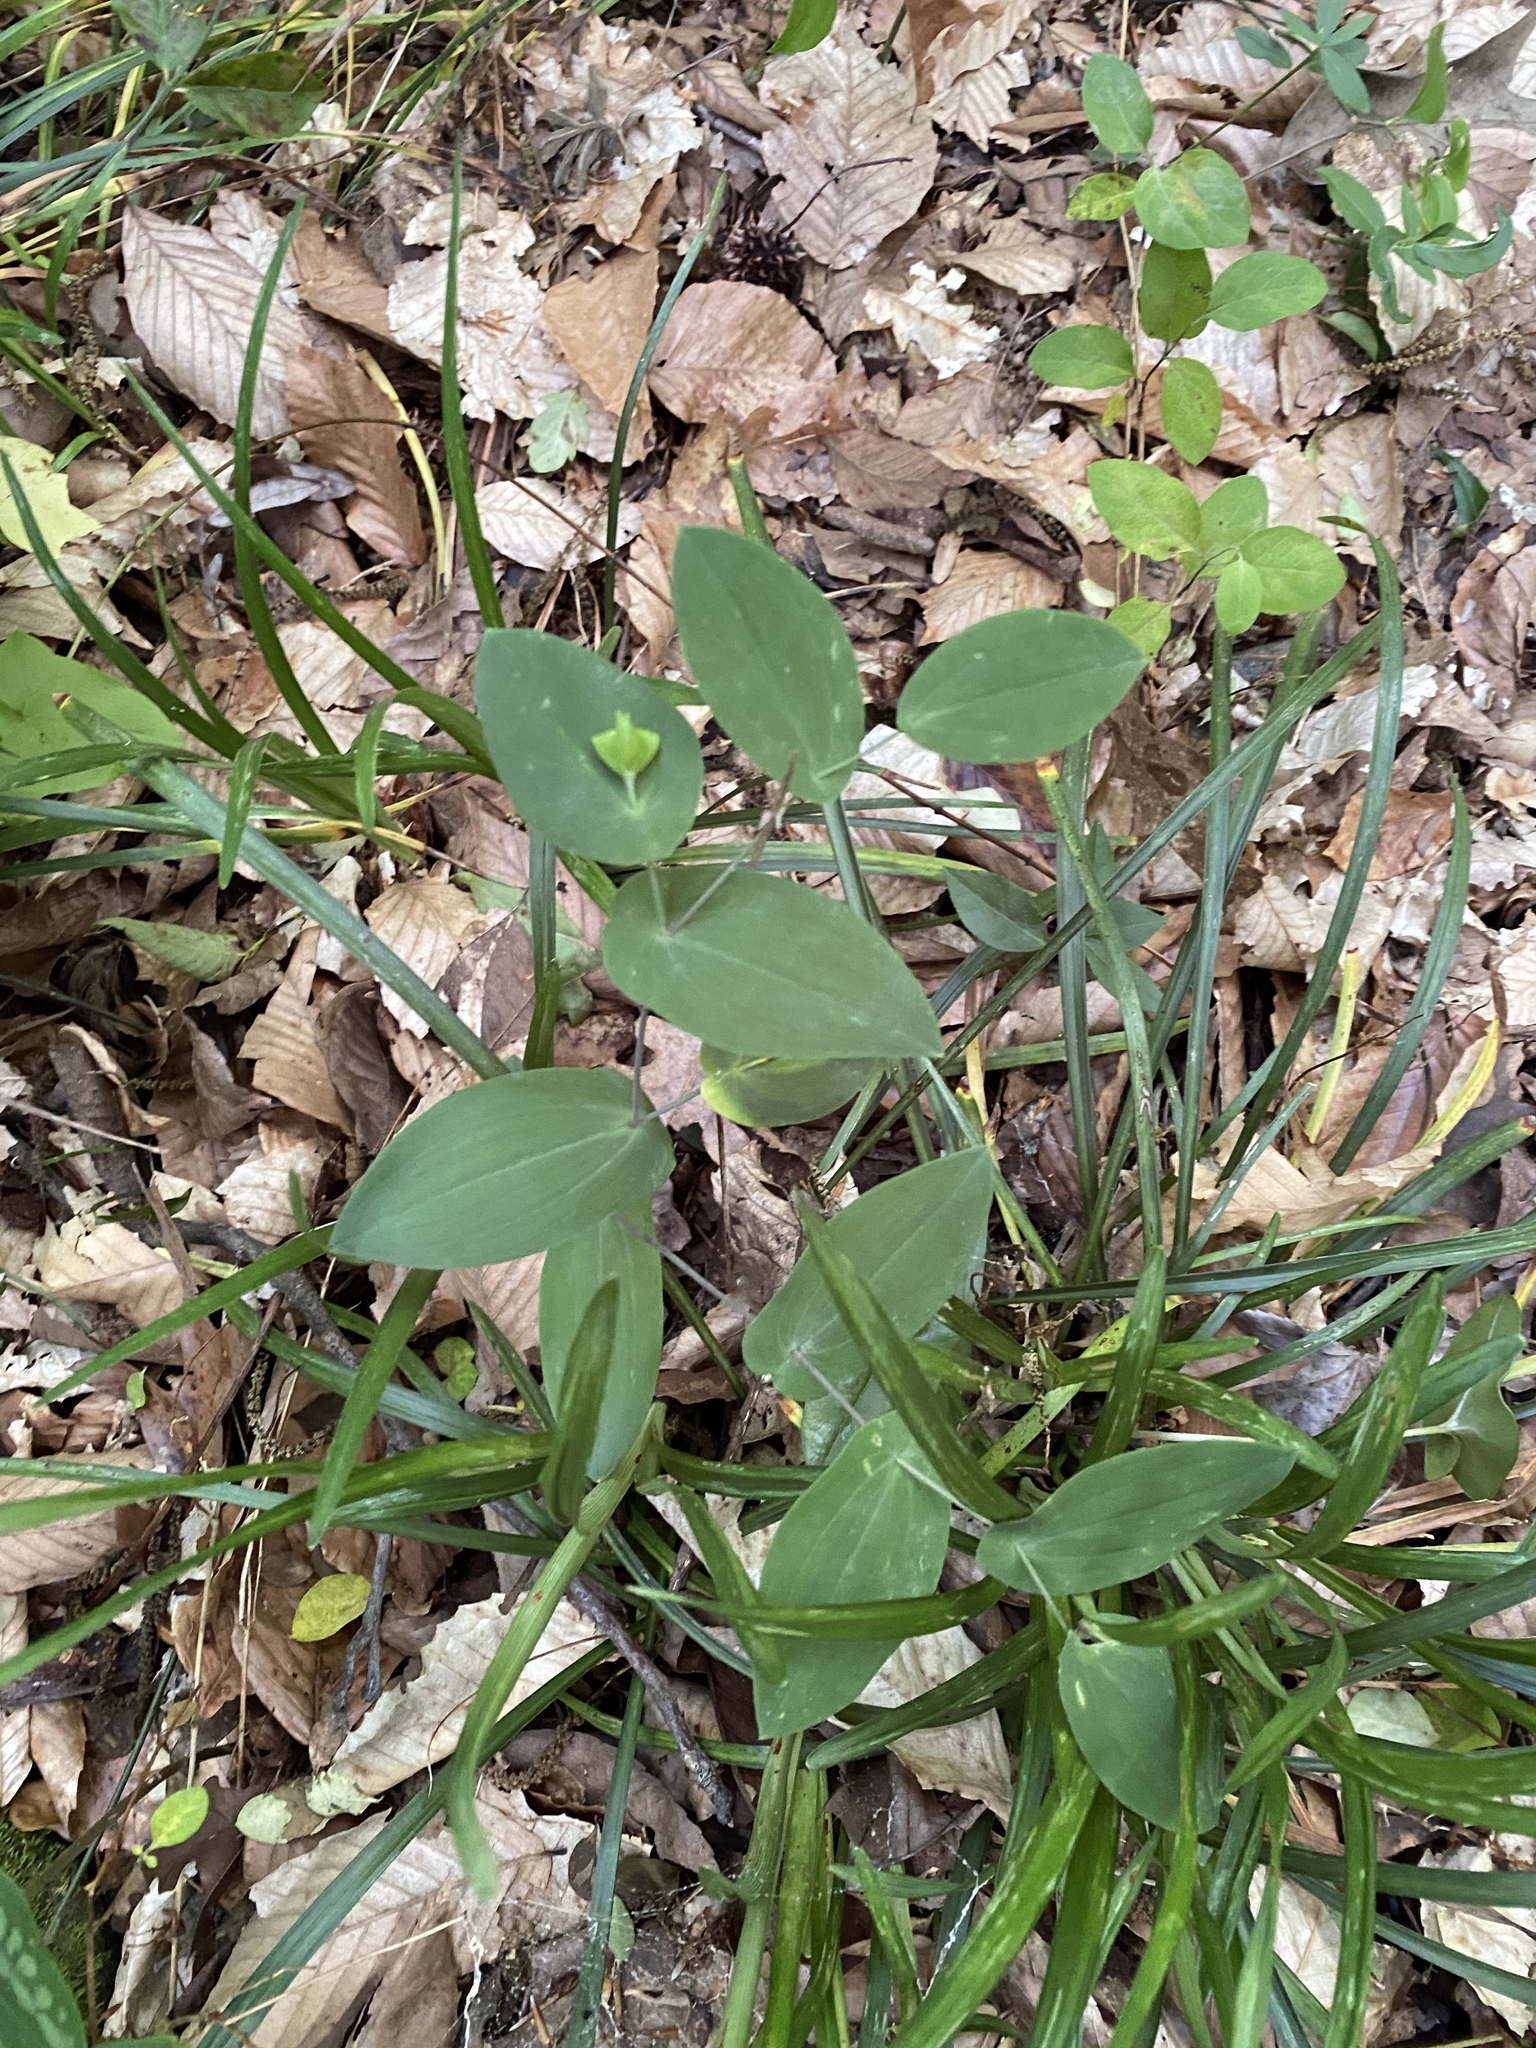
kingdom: Plantae
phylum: Tracheophyta
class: Liliopsida
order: Liliales
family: Colchicaceae
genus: Uvularia
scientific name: Uvularia perfoliata
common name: Perfoliate bellwort
